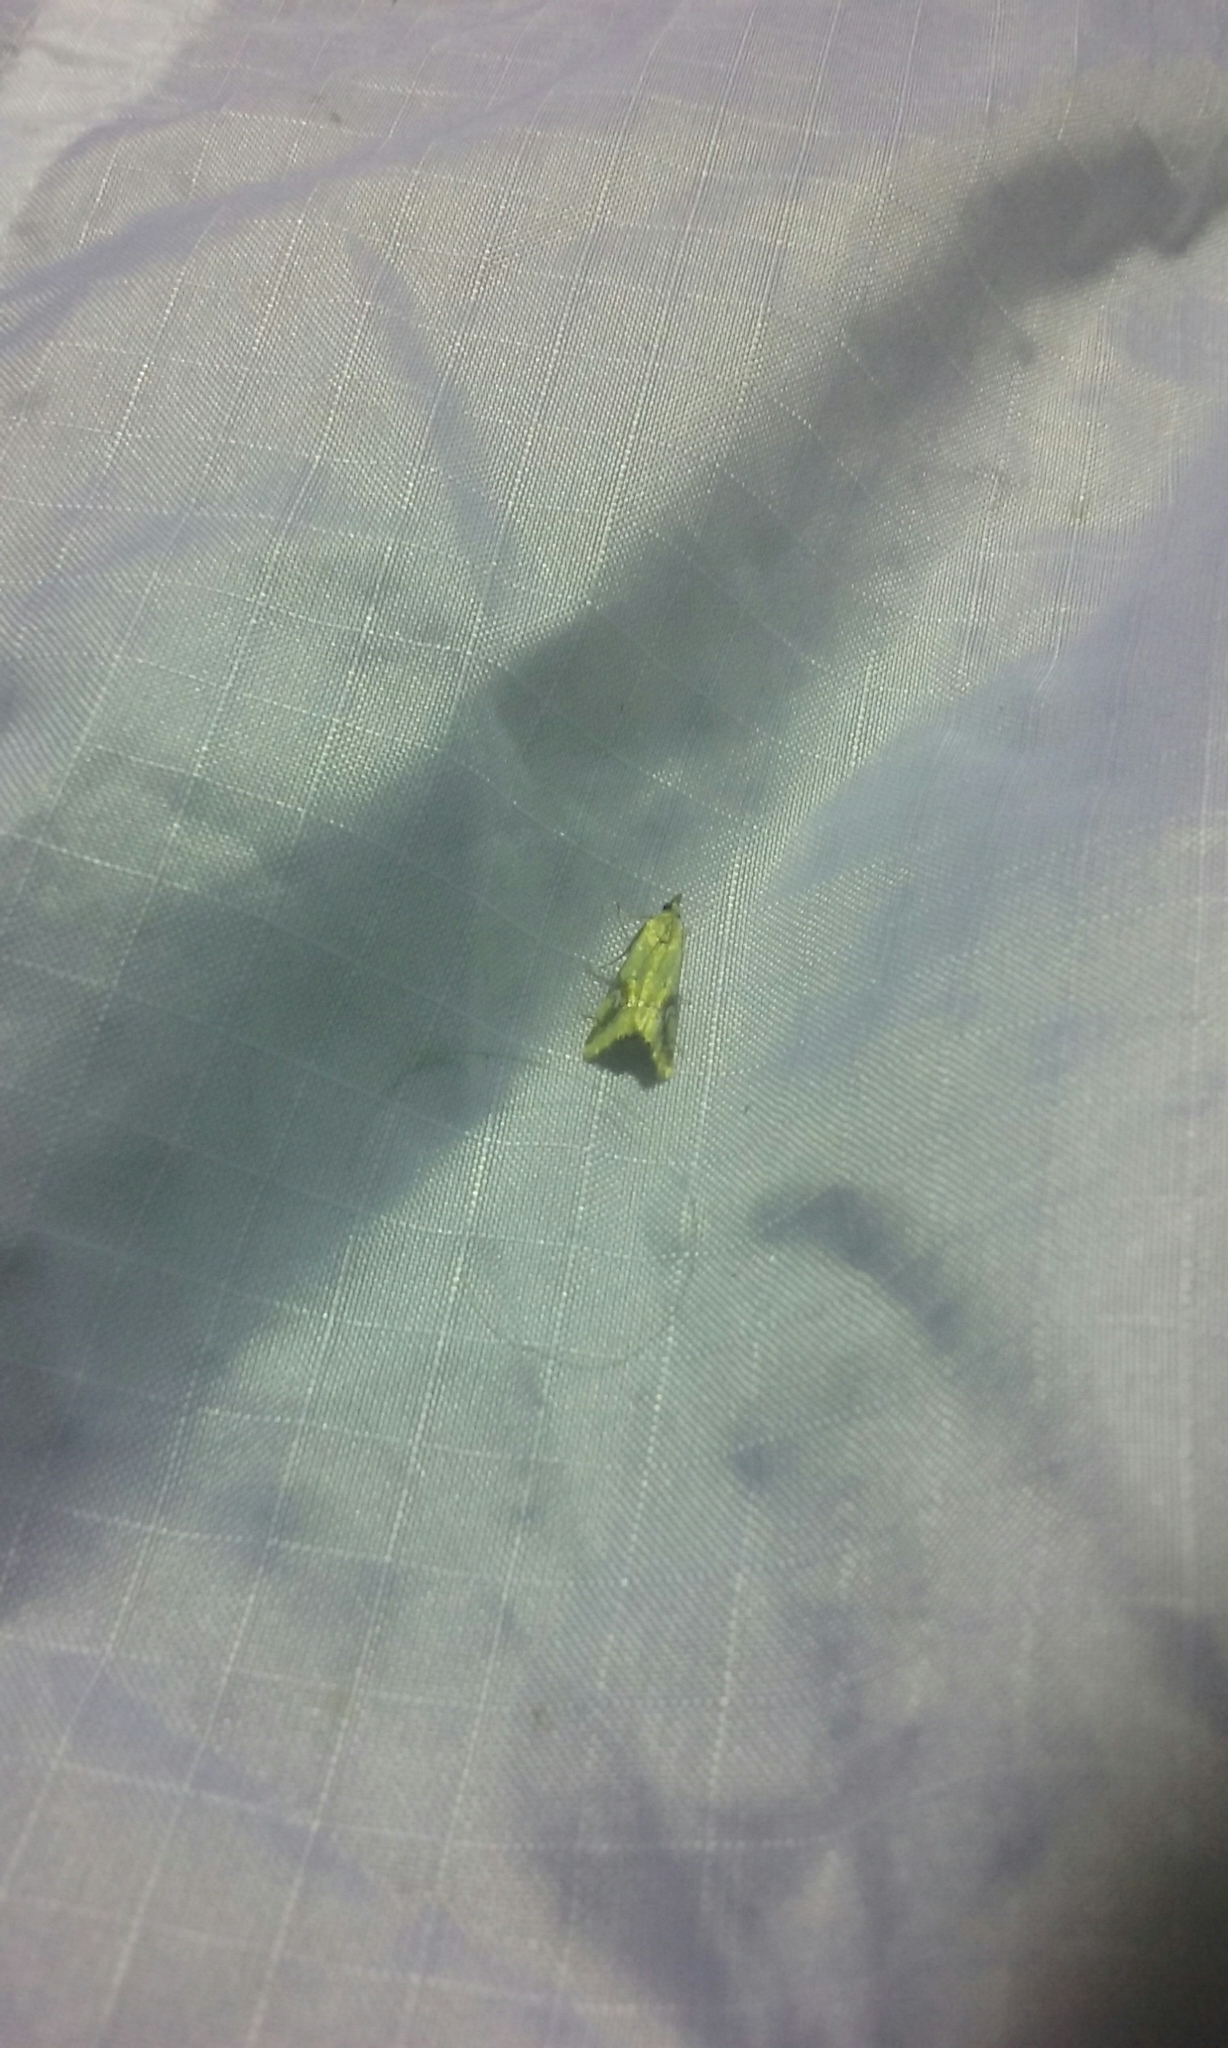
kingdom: Animalia
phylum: Arthropoda
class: Insecta
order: Lepidoptera
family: Crambidae
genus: Glaucocharis
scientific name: Glaucocharis lepidella
